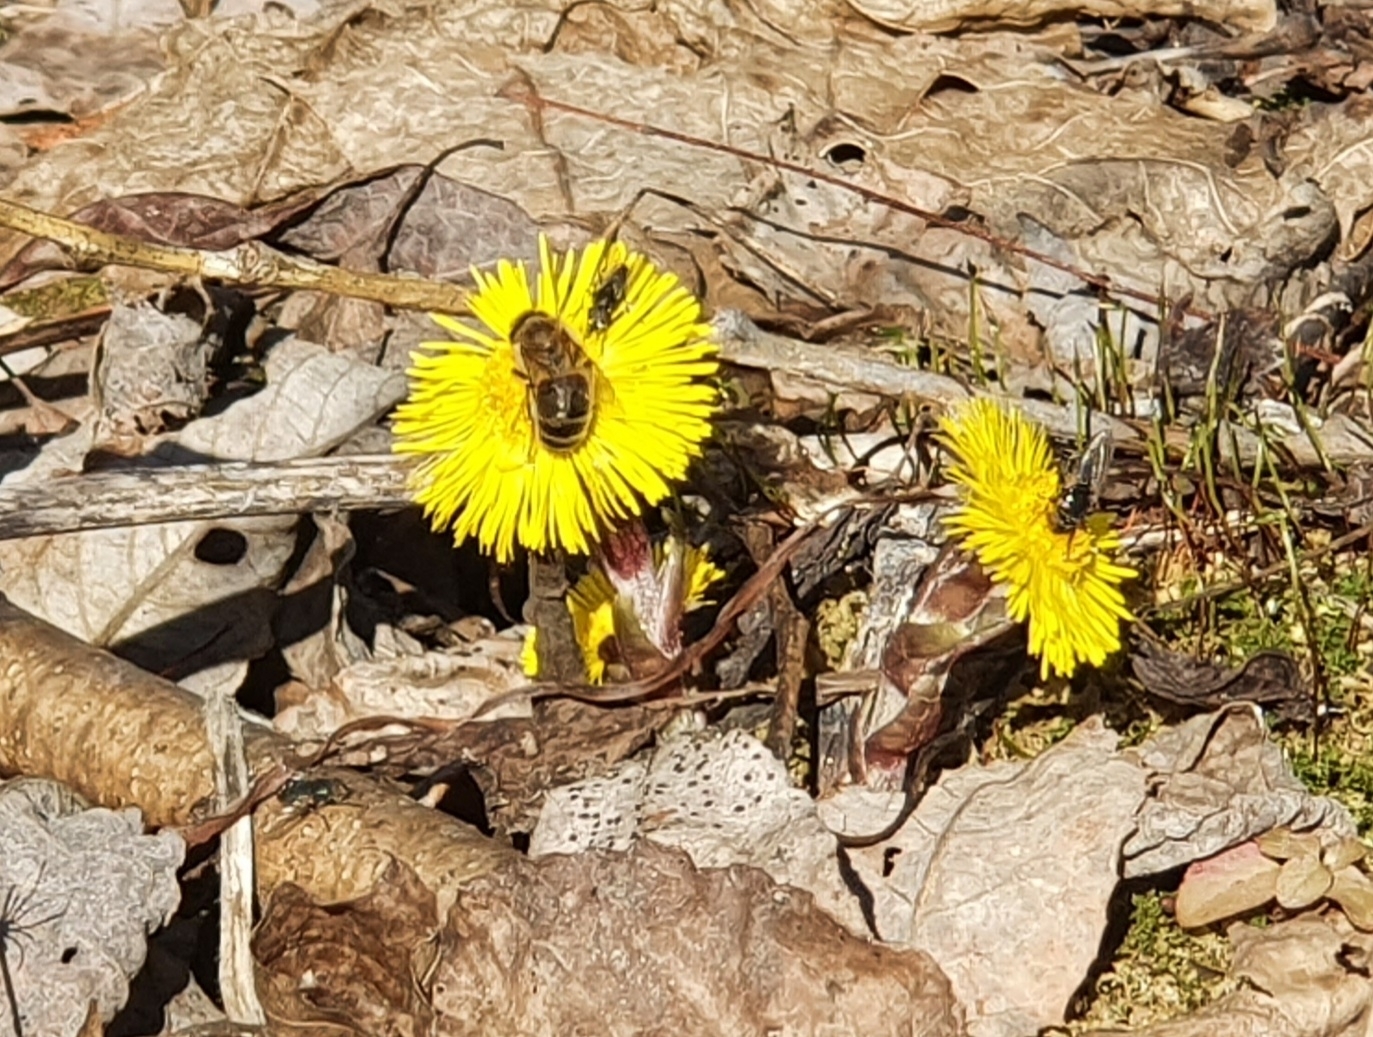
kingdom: Plantae
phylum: Tracheophyta
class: Magnoliopsida
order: Asterales
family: Asteraceae
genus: Tussilago
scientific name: Tussilago farfara
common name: Coltsfoot
